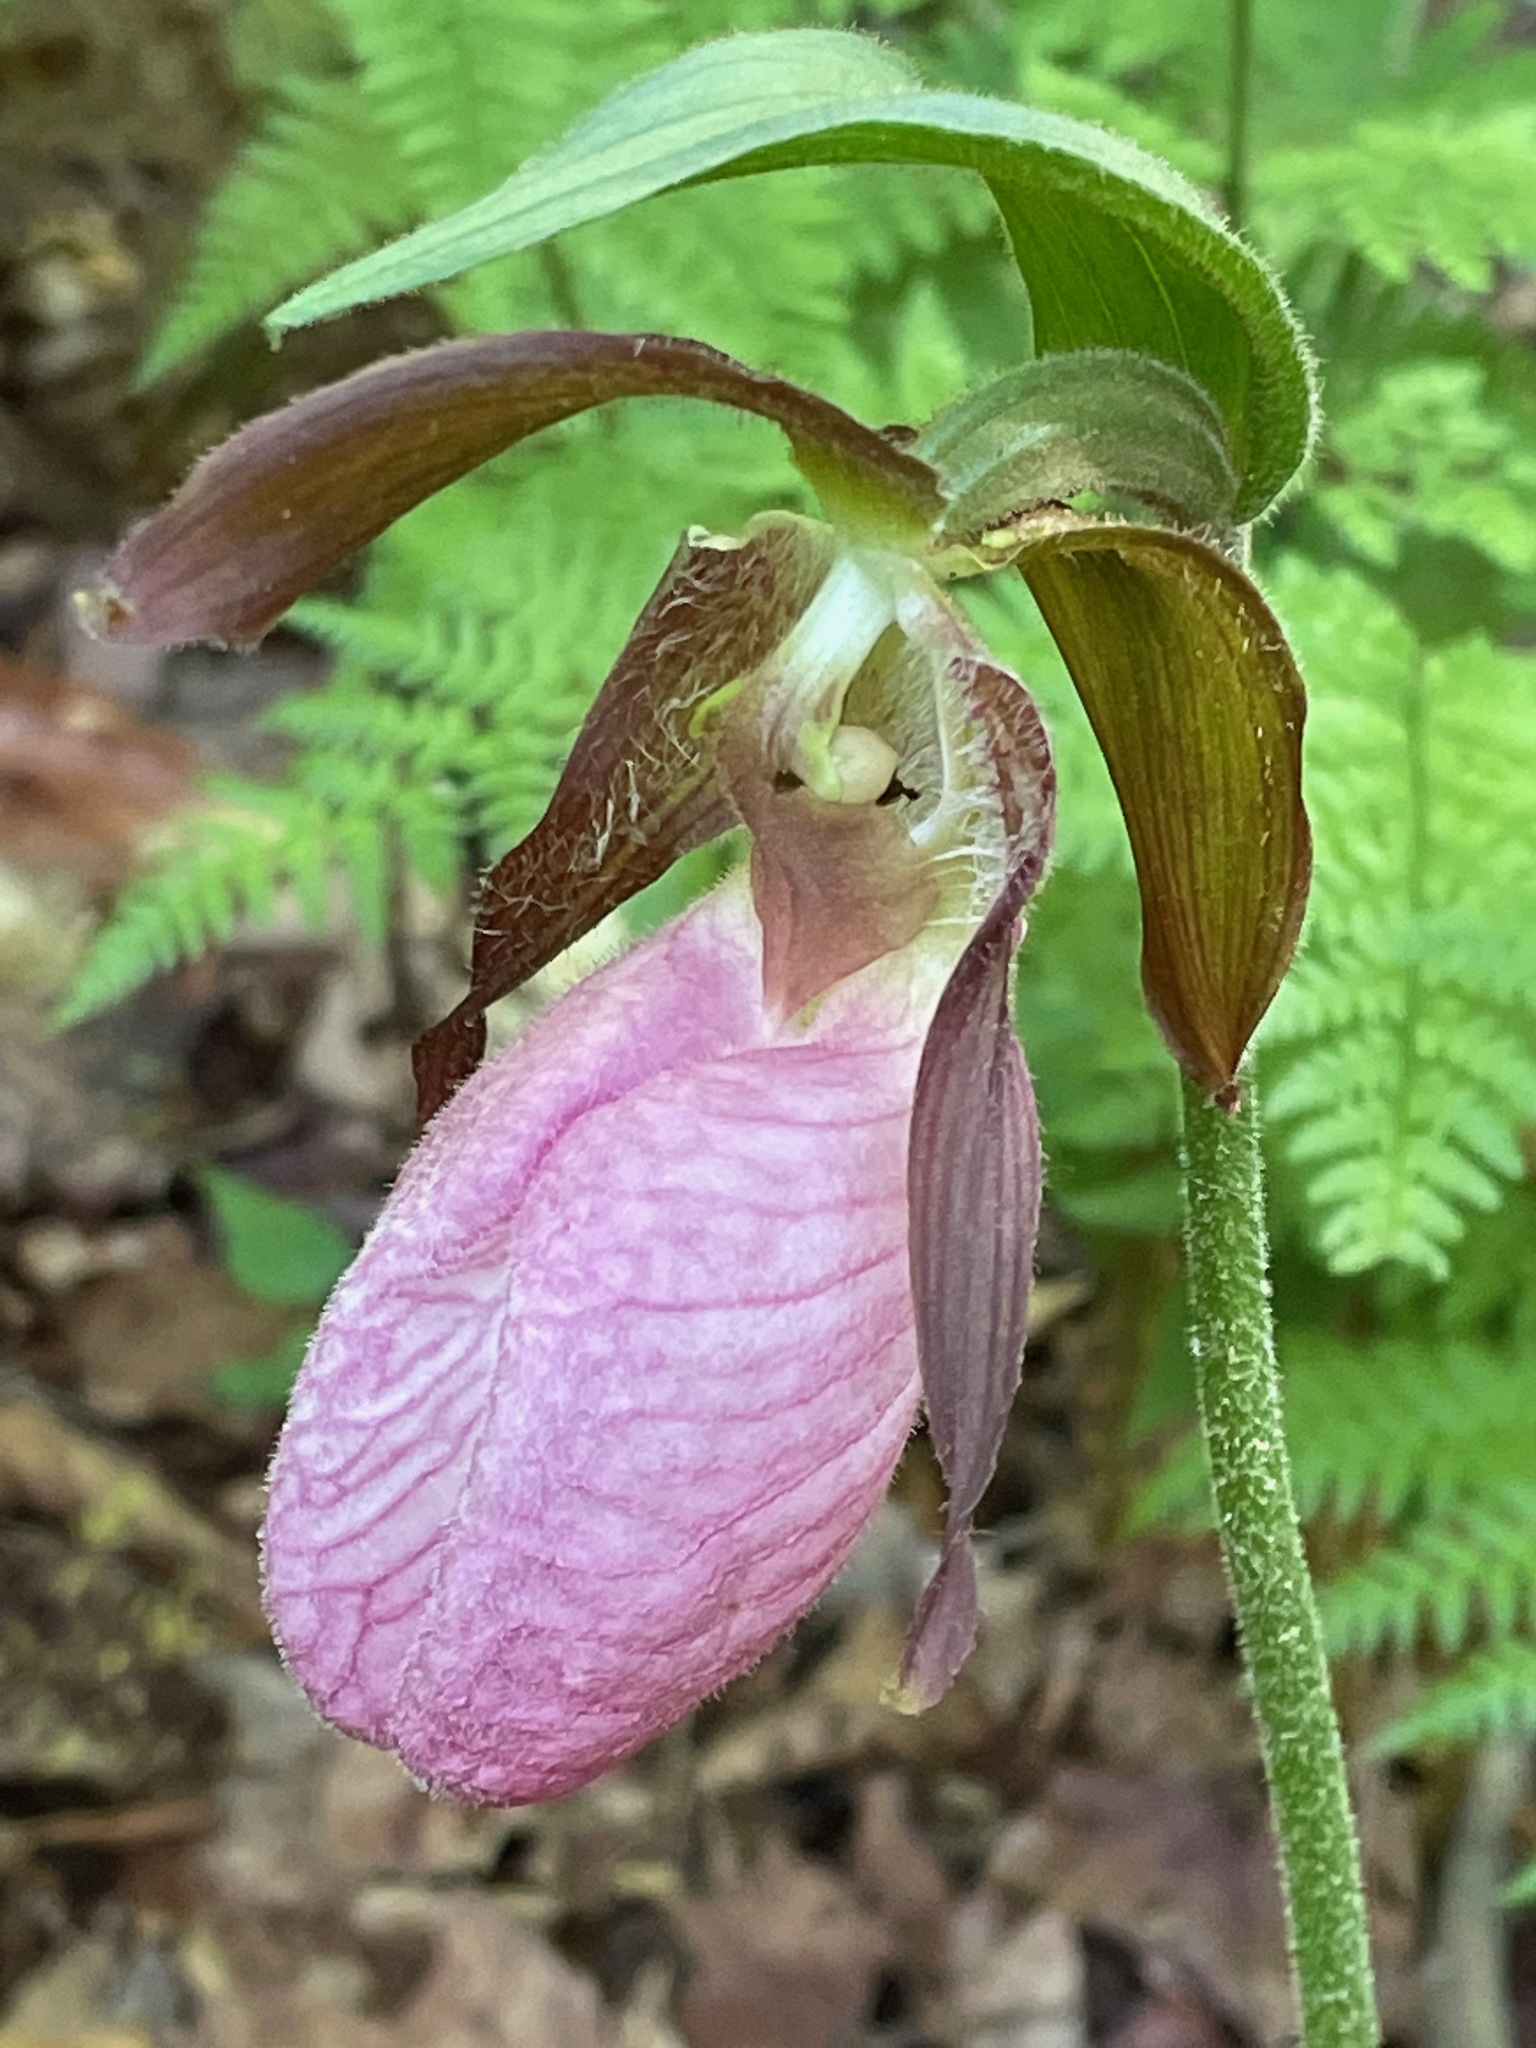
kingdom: Plantae
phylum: Tracheophyta
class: Liliopsida
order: Asparagales
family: Orchidaceae
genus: Cypripedium
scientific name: Cypripedium acaule
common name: Pink lady's-slipper
